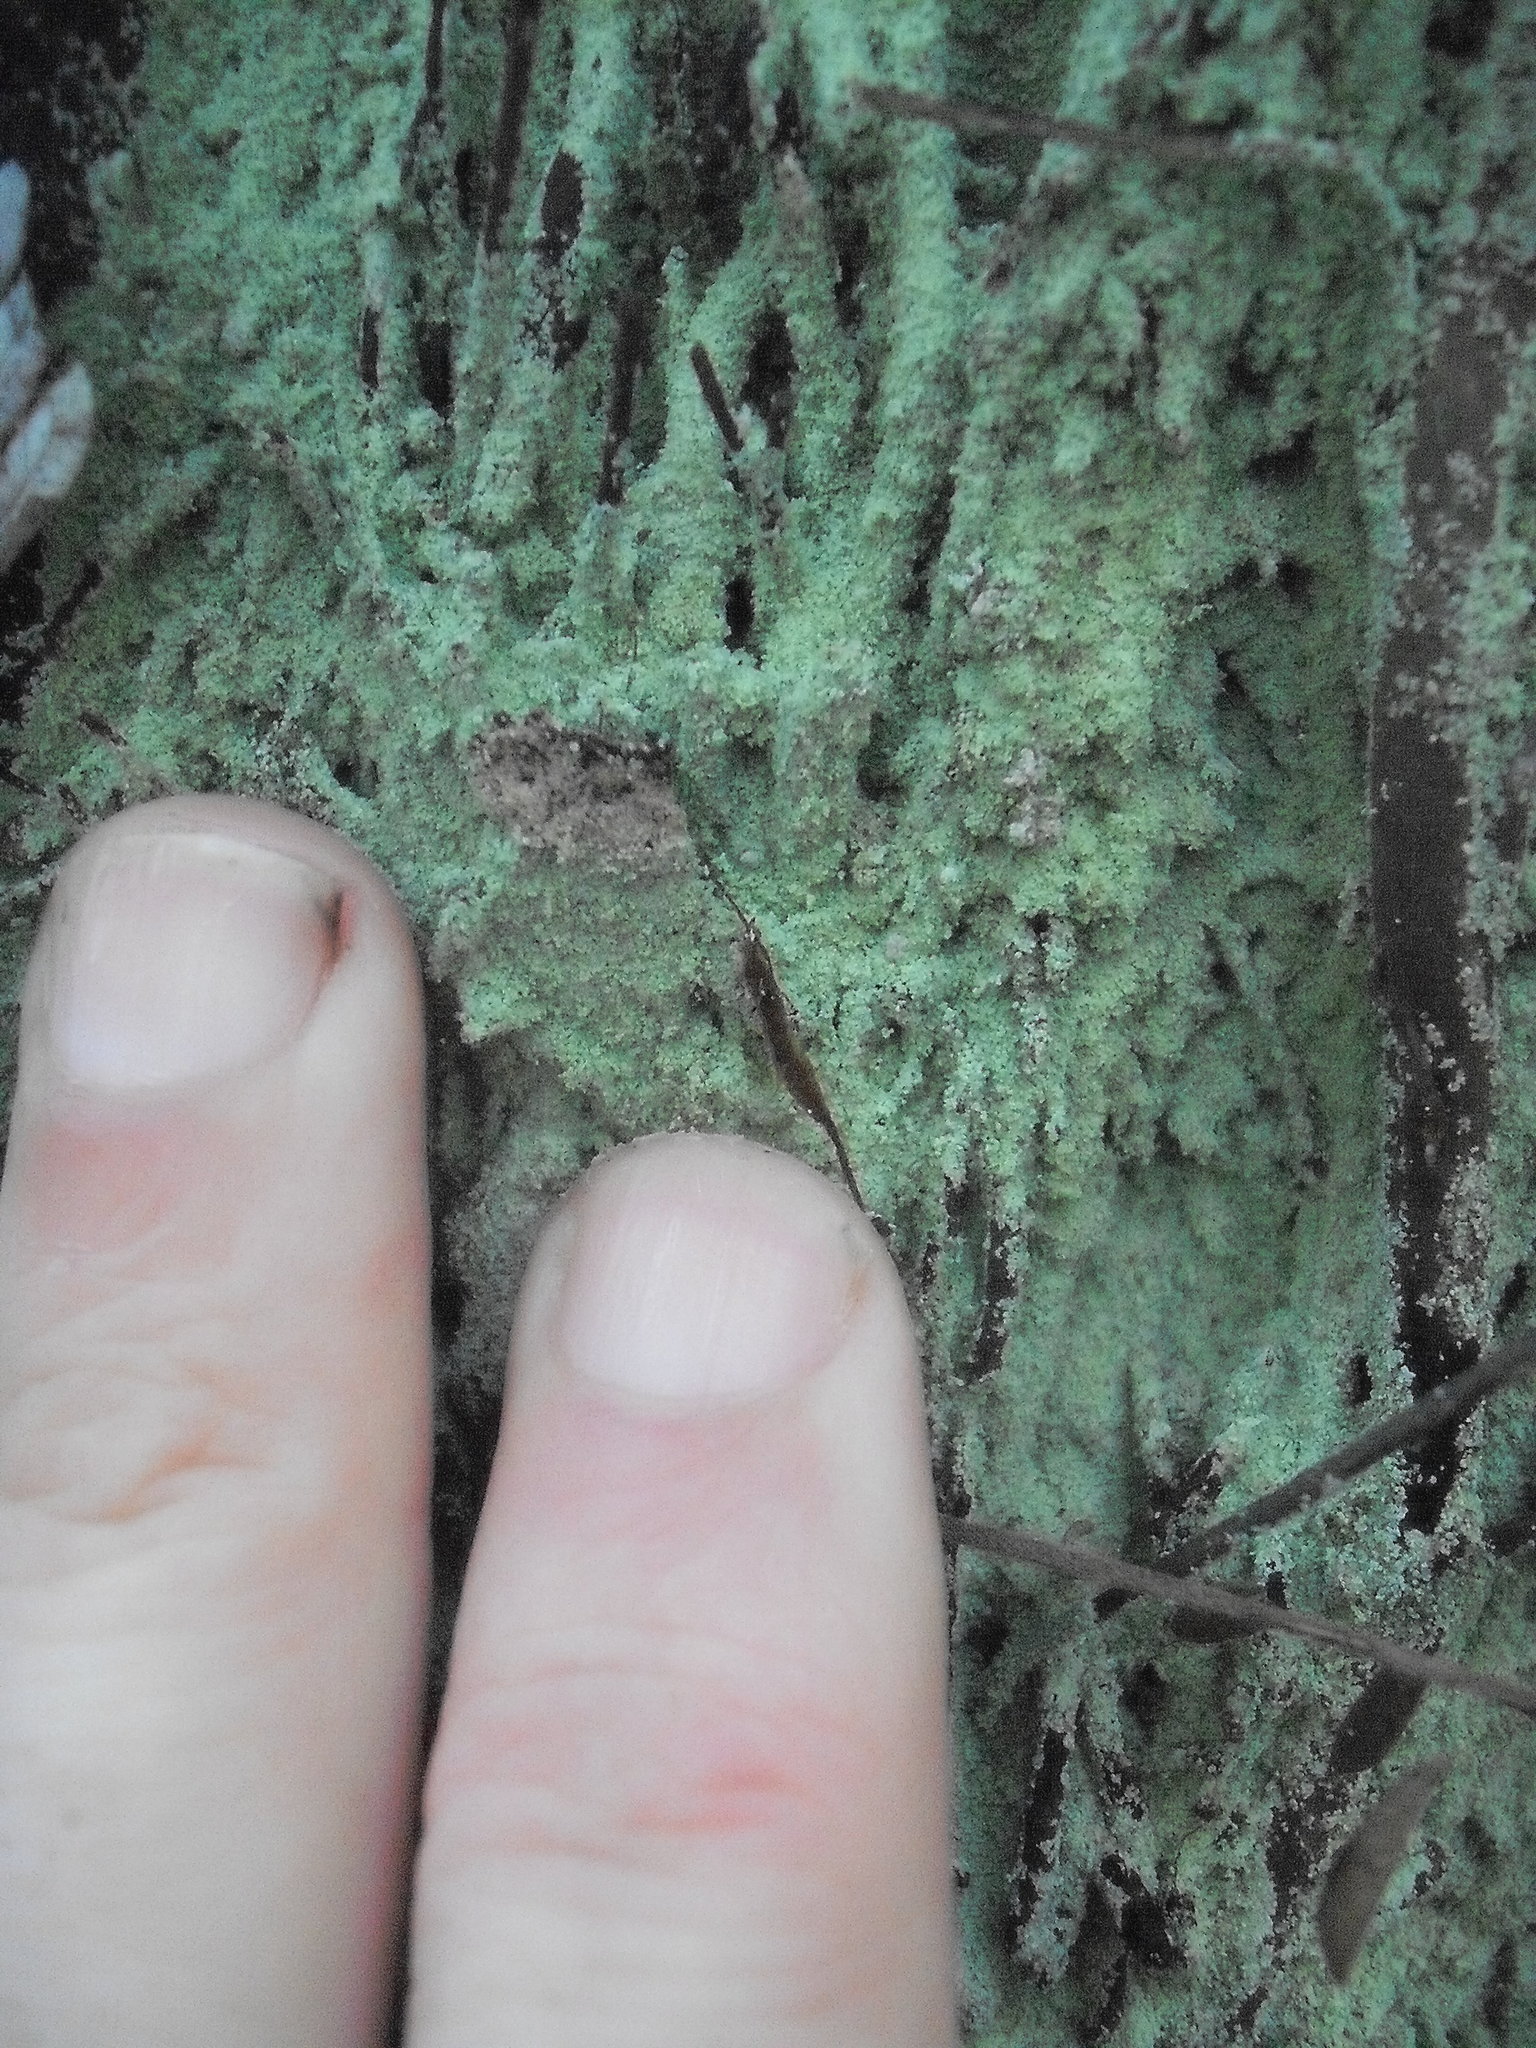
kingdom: Fungi
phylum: Ascomycota
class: Lecanoromycetes
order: Lecanorales
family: Stereocaulaceae
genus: Lepraria
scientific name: Lepraria lobificans
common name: Fluffy dust lichen
